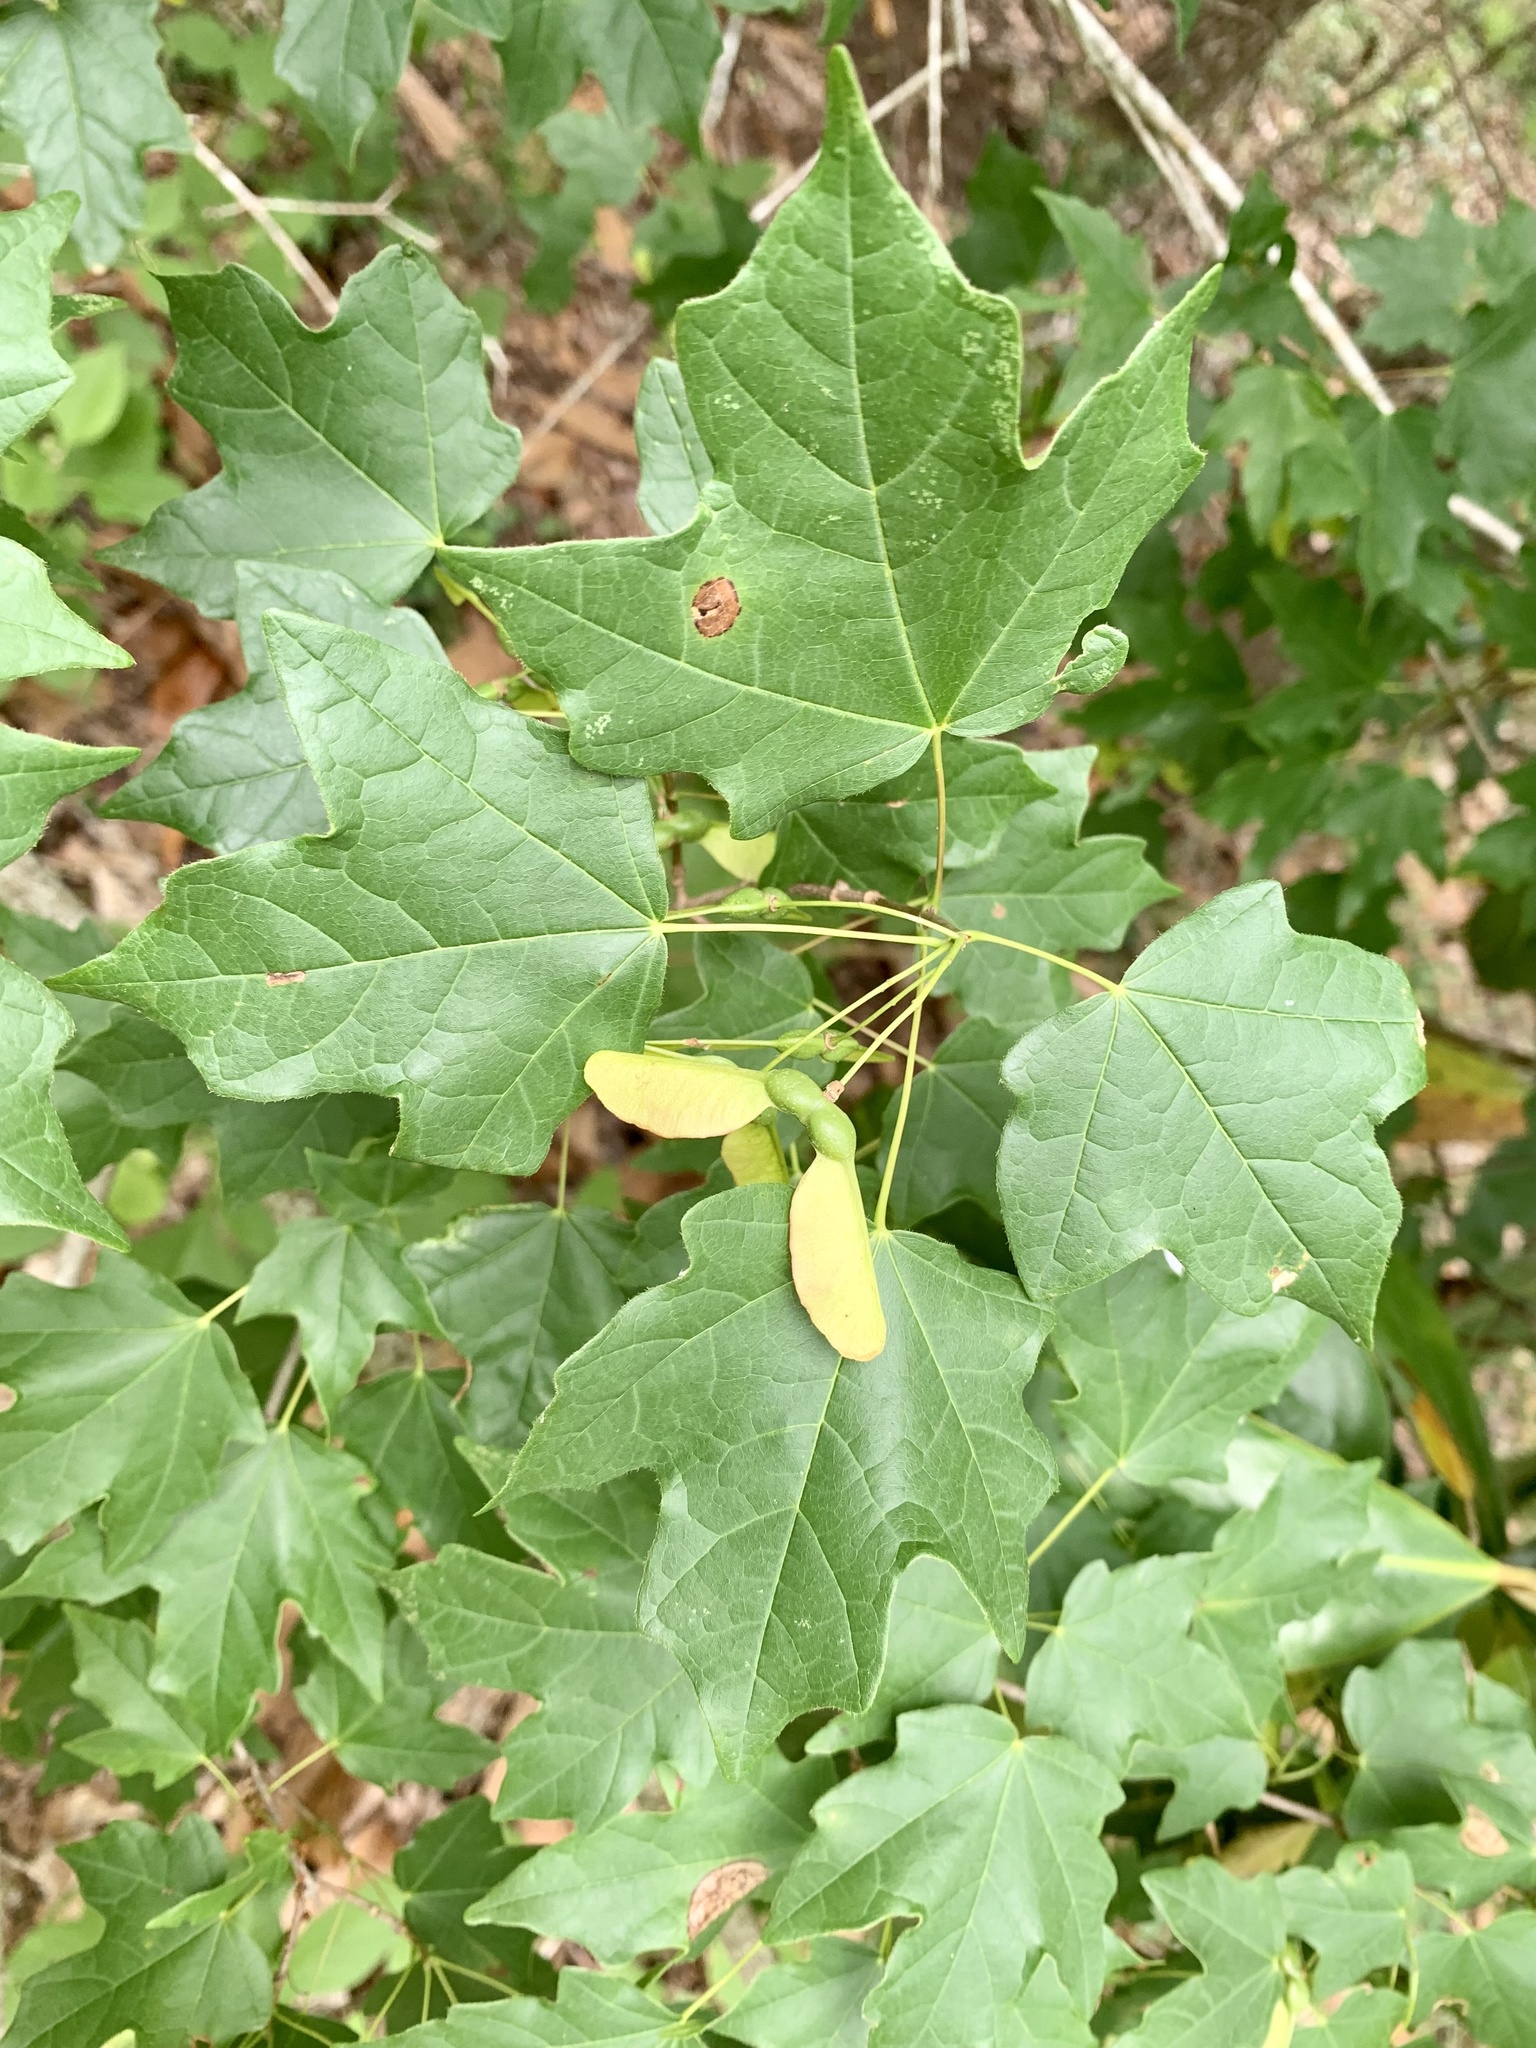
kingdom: Plantae
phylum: Tracheophyta
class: Magnoliopsida
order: Sapindales
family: Sapindaceae
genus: Acer
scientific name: Acer floridanum
